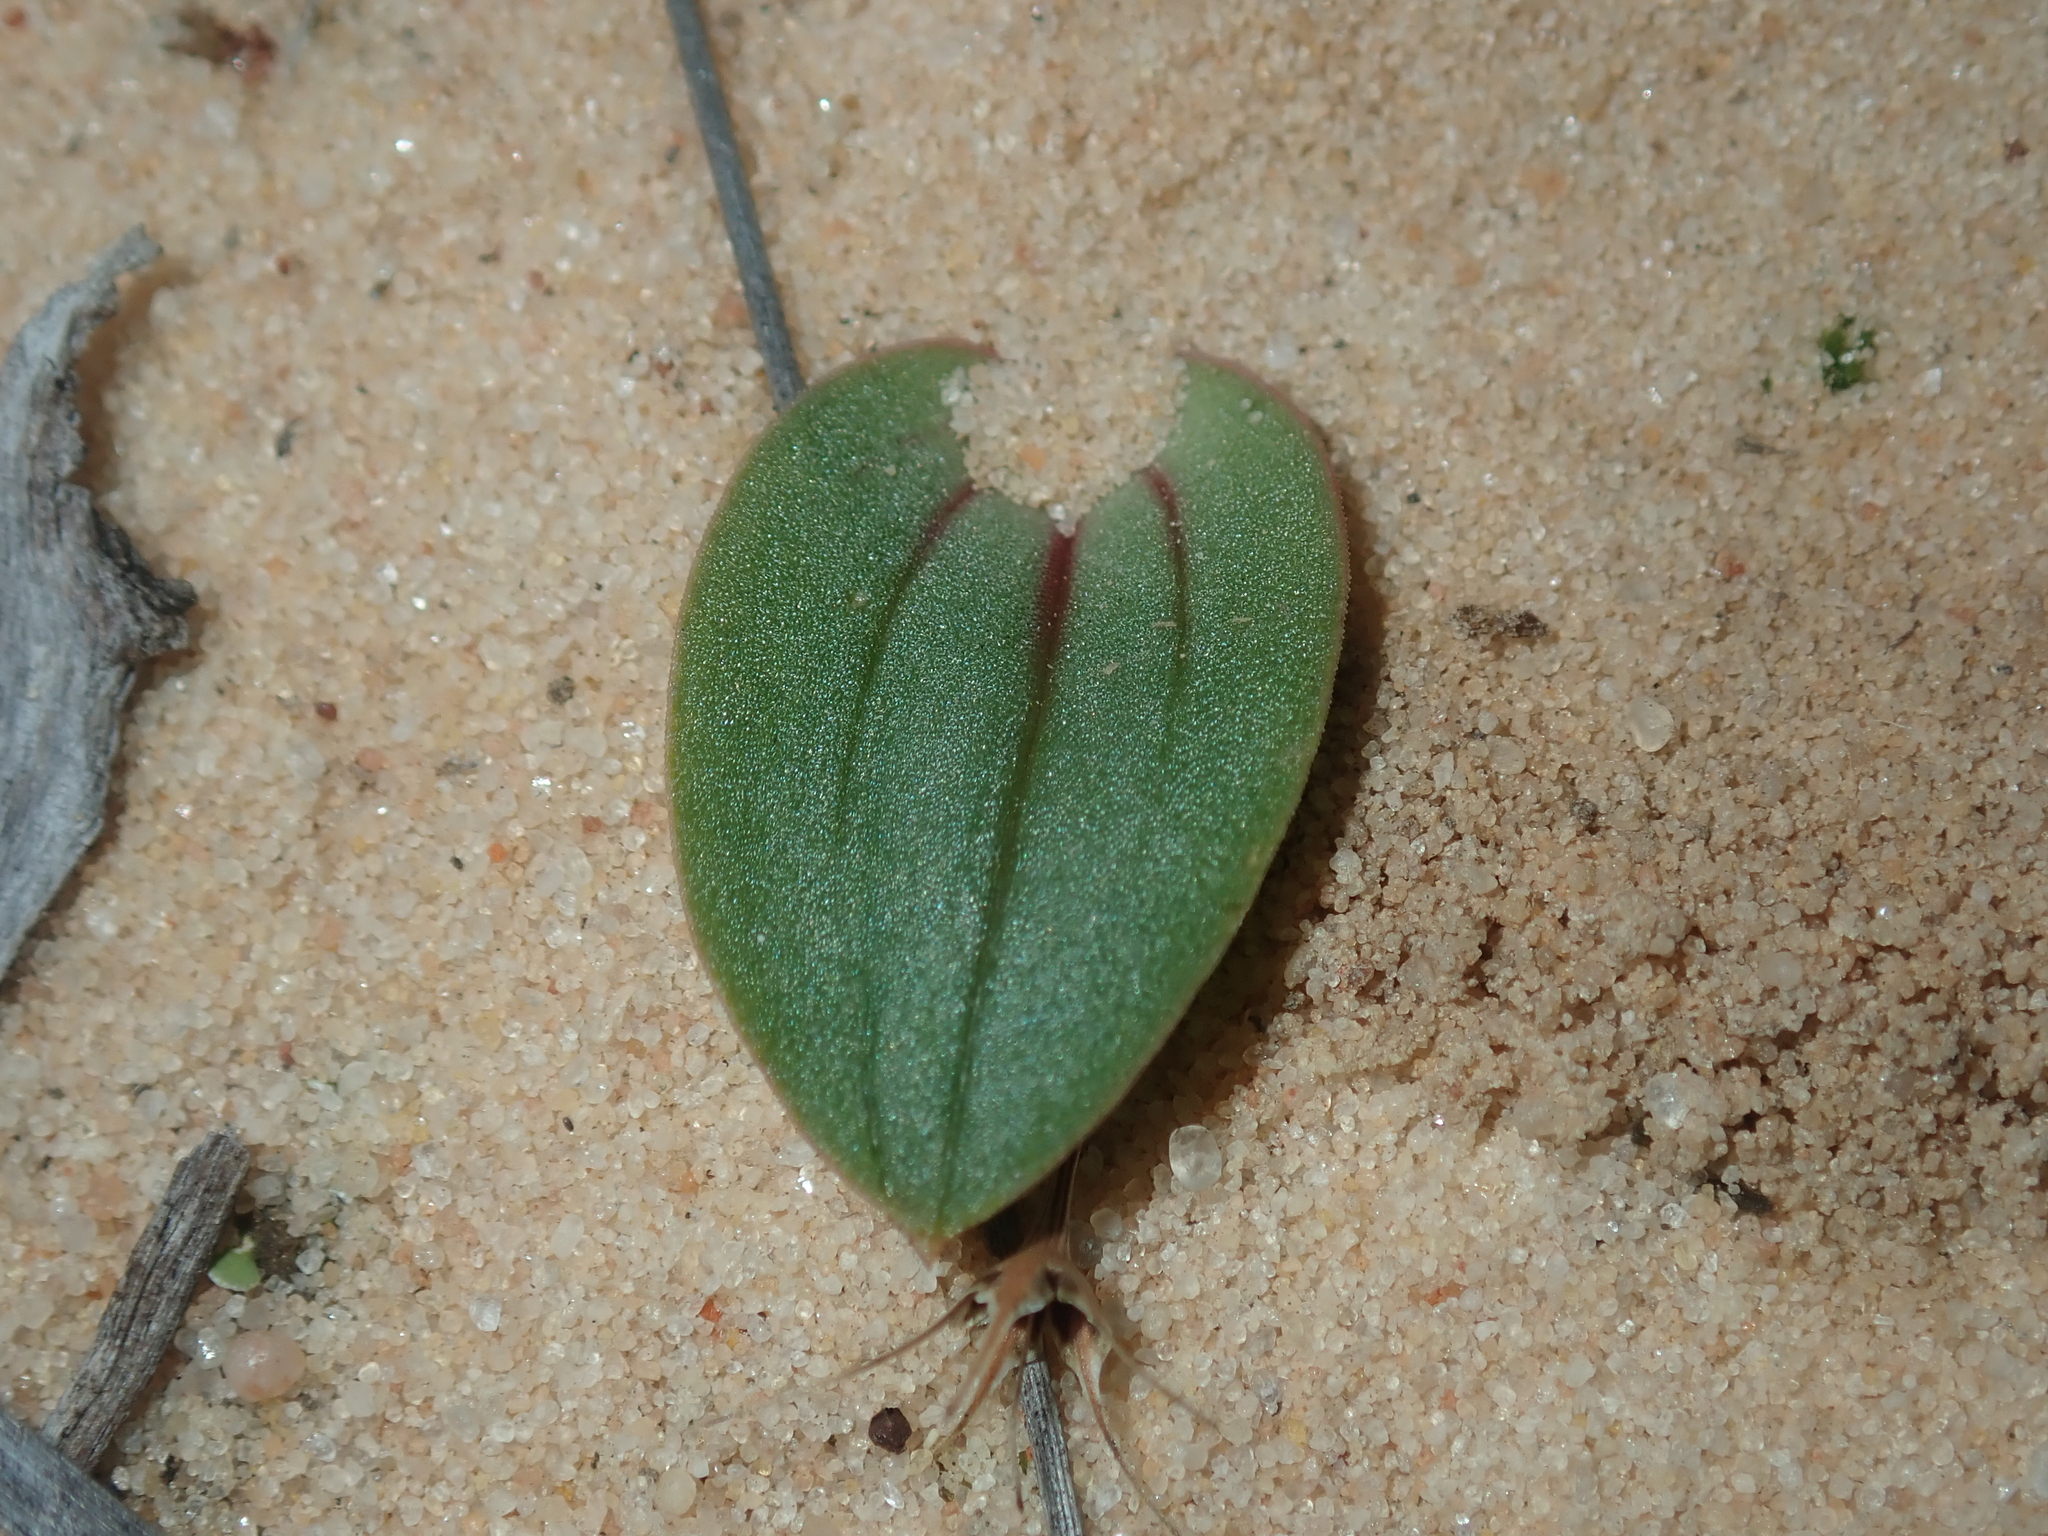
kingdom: Plantae
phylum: Tracheophyta
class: Liliopsida
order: Asparagales
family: Orchidaceae
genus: Leporella
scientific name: Leporella fimbriata
